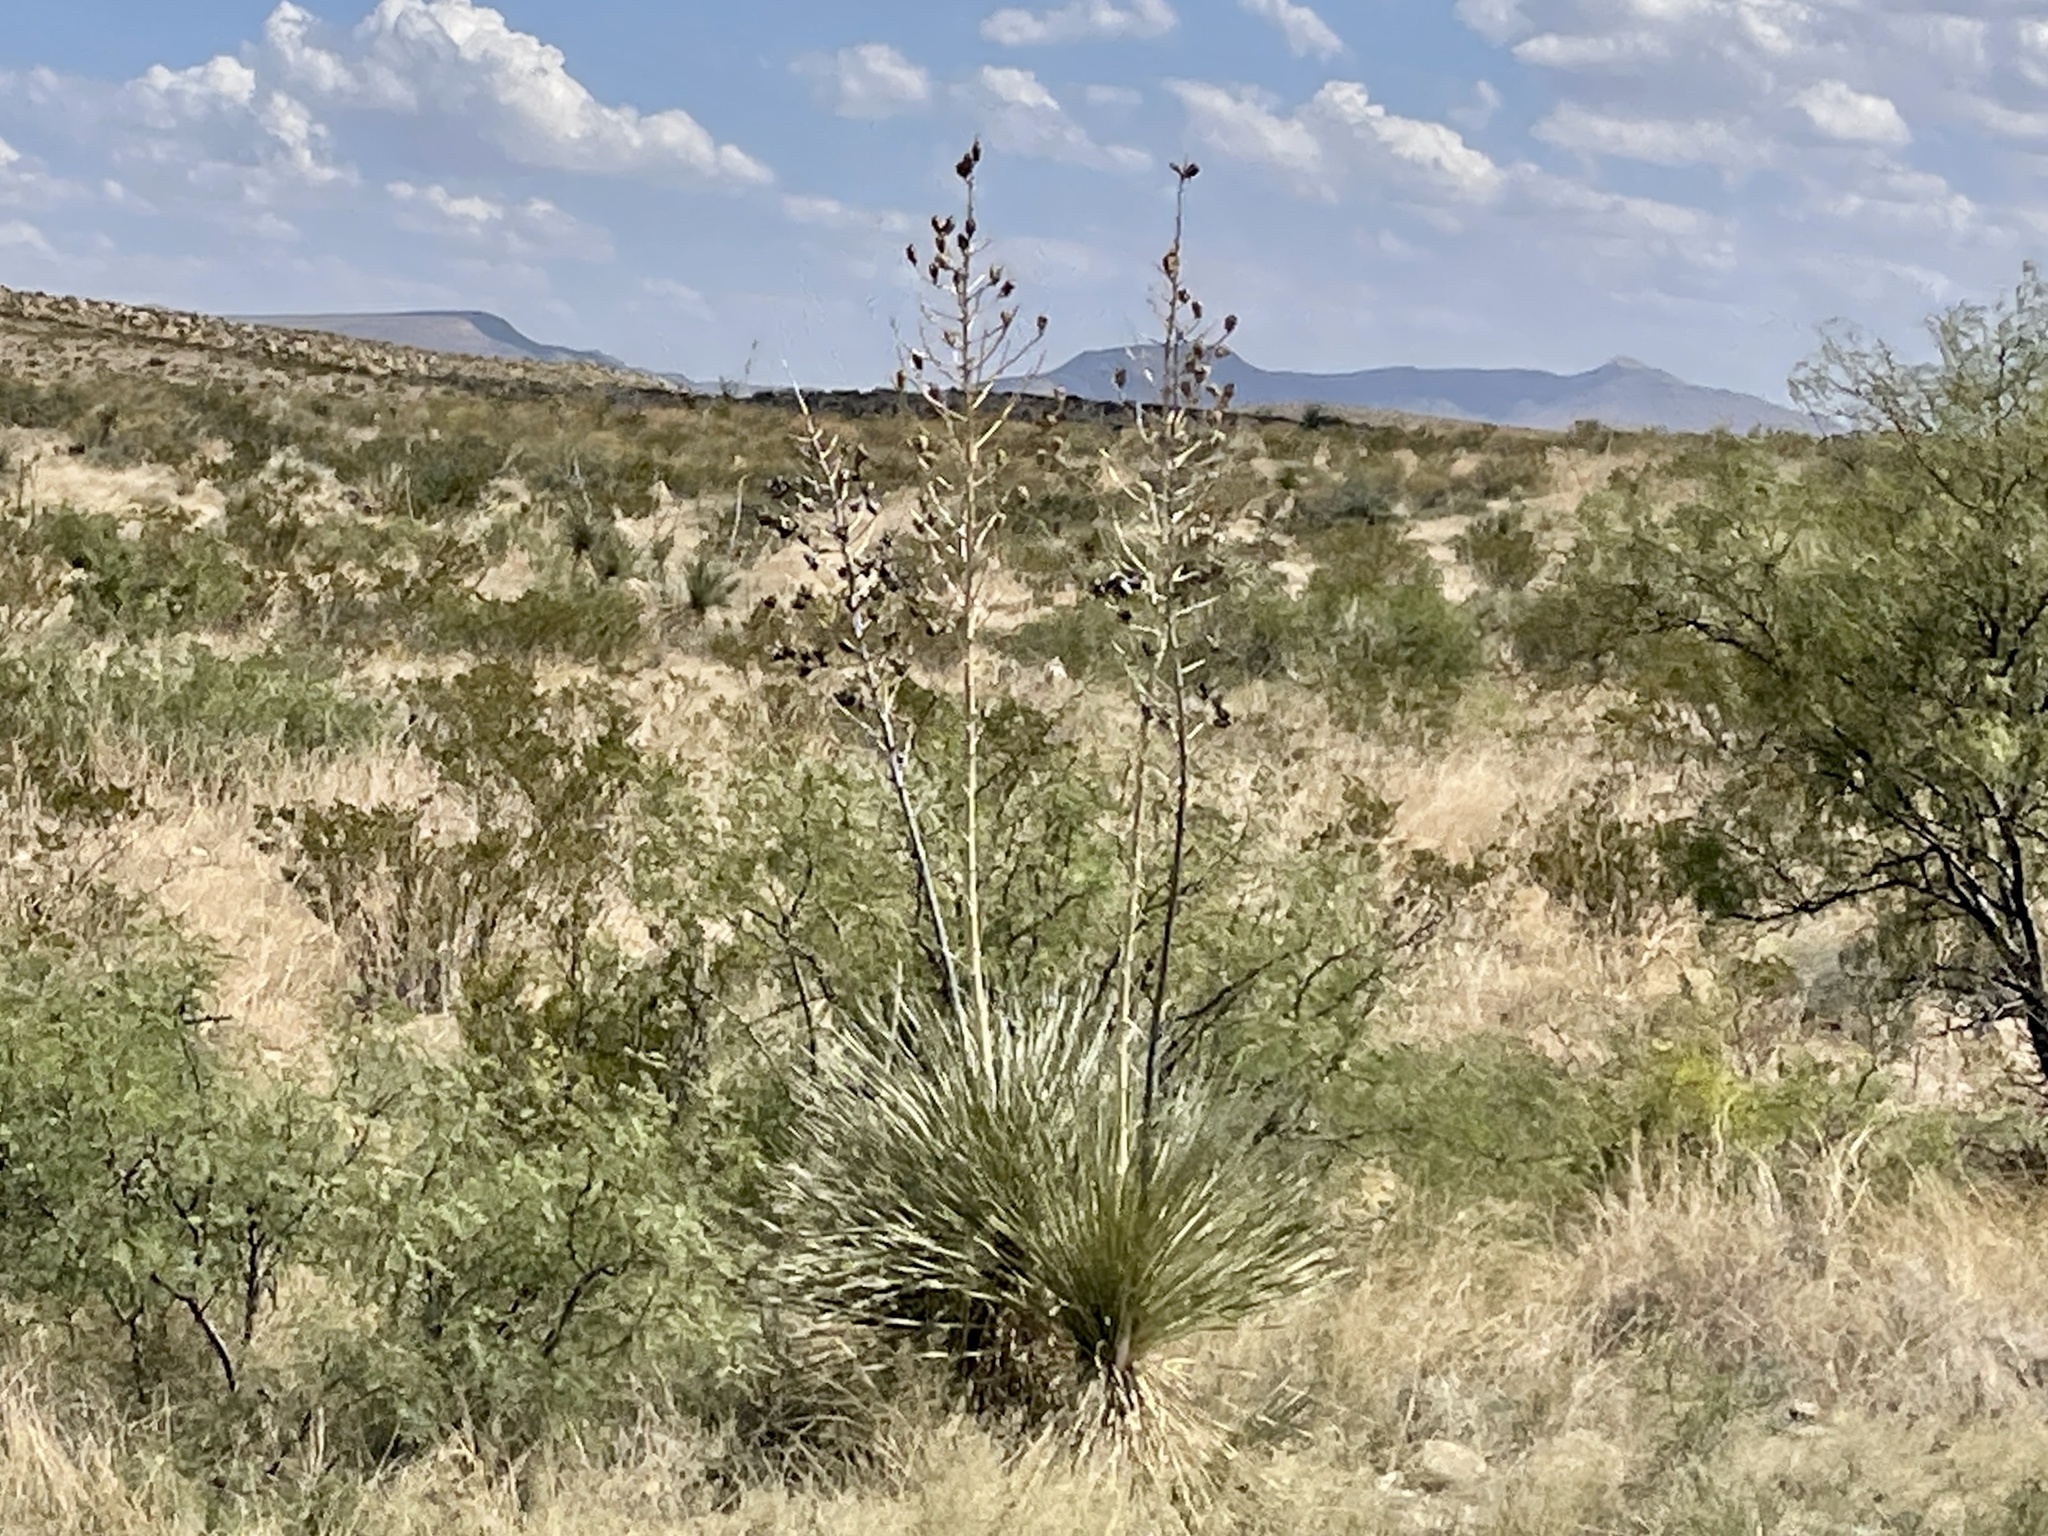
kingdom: Plantae
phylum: Tracheophyta
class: Liliopsida
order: Asparagales
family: Asparagaceae
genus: Yucca
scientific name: Yucca elata
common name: Palmella
